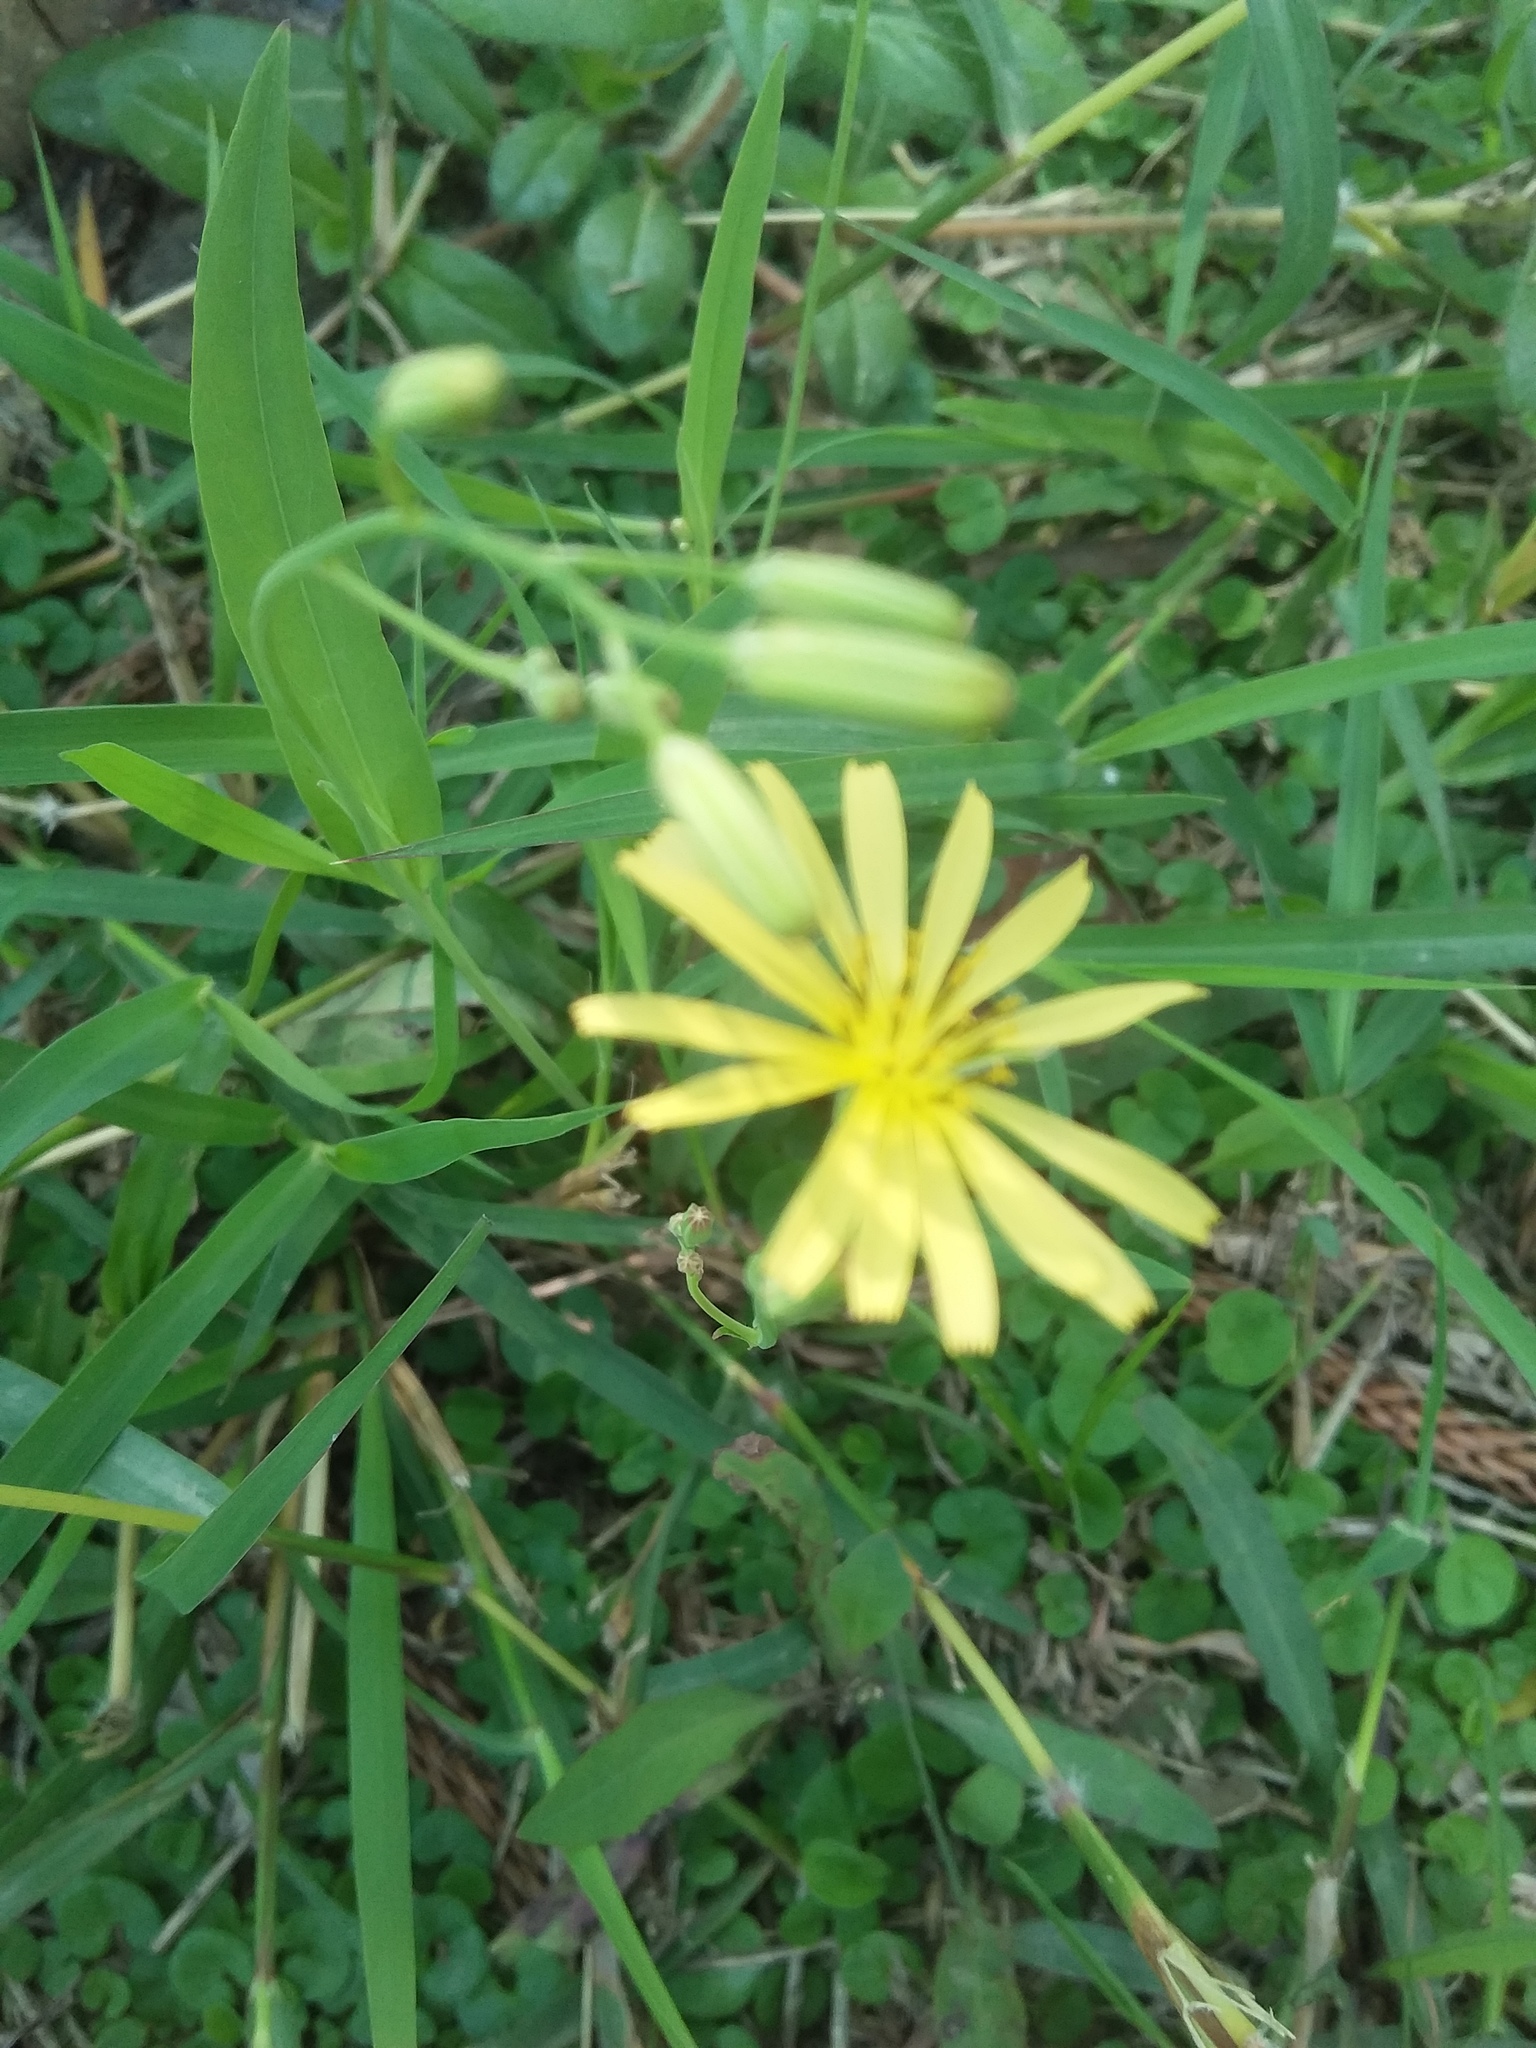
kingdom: Plantae
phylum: Tracheophyta
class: Magnoliopsida
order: Asterales
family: Asteraceae
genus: Ixeris
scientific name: Ixeris chinensis
